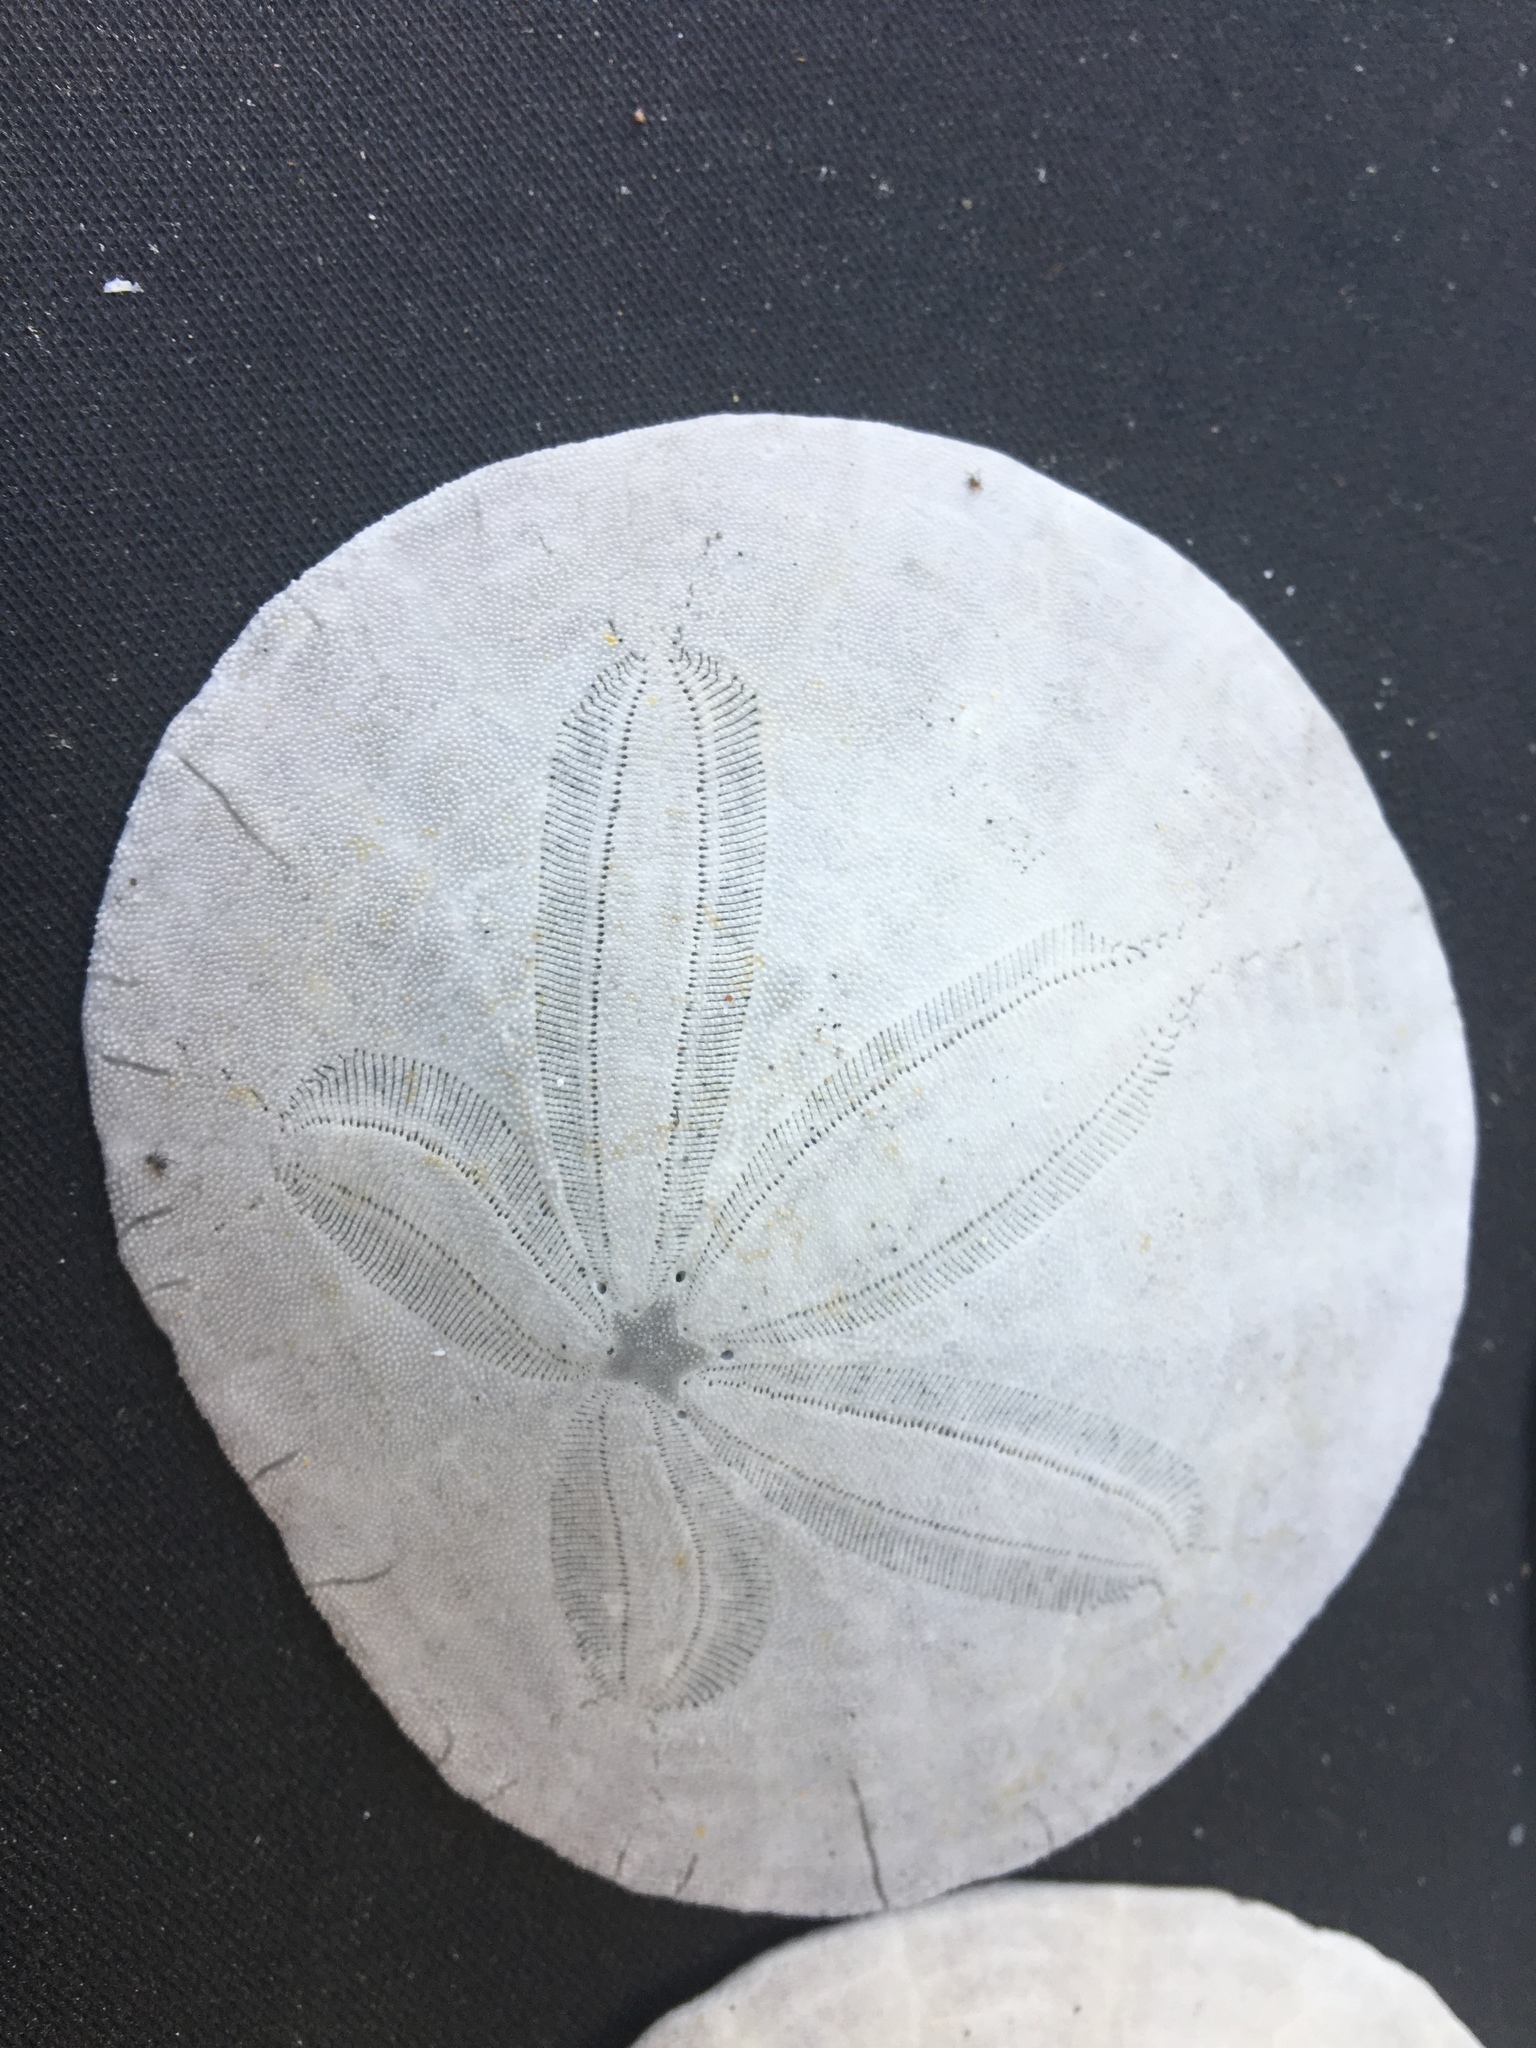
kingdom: Animalia
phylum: Echinodermata
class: Echinoidea
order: Echinolampadacea
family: Dendrasteridae
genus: Dendraster
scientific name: Dendraster excentricus
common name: Eccentric sand dollar sea urchin
